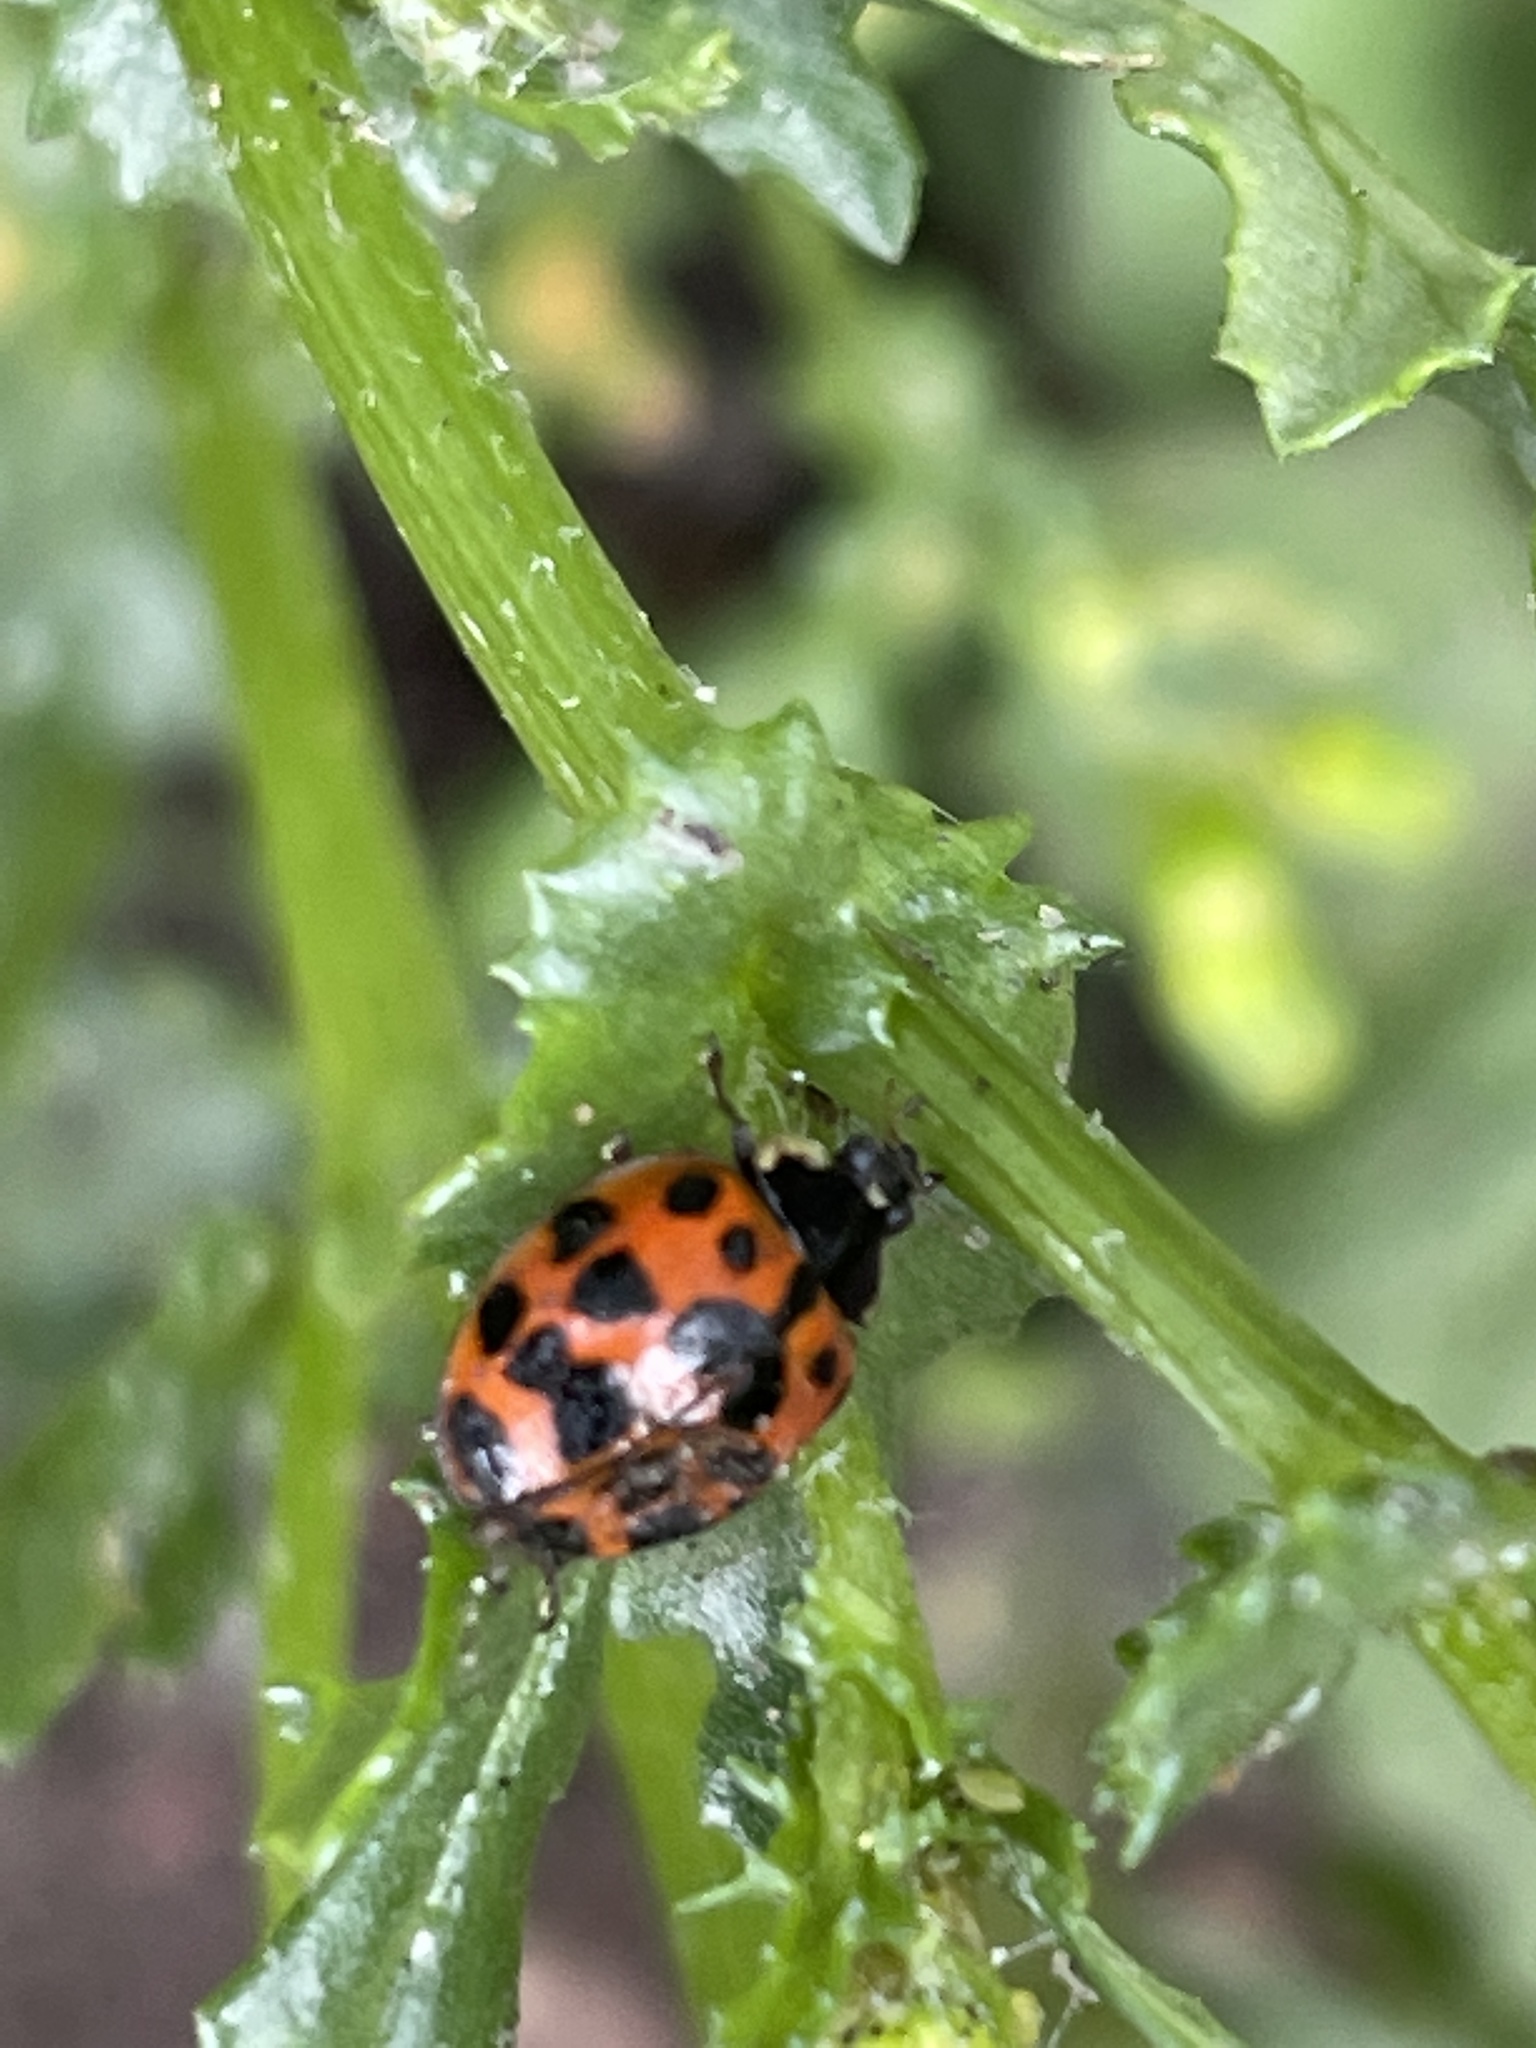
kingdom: Animalia
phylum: Arthropoda
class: Insecta
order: Coleoptera
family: Coccinellidae
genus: Harmonia
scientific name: Harmonia axyridis
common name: Harlequin ladybird
